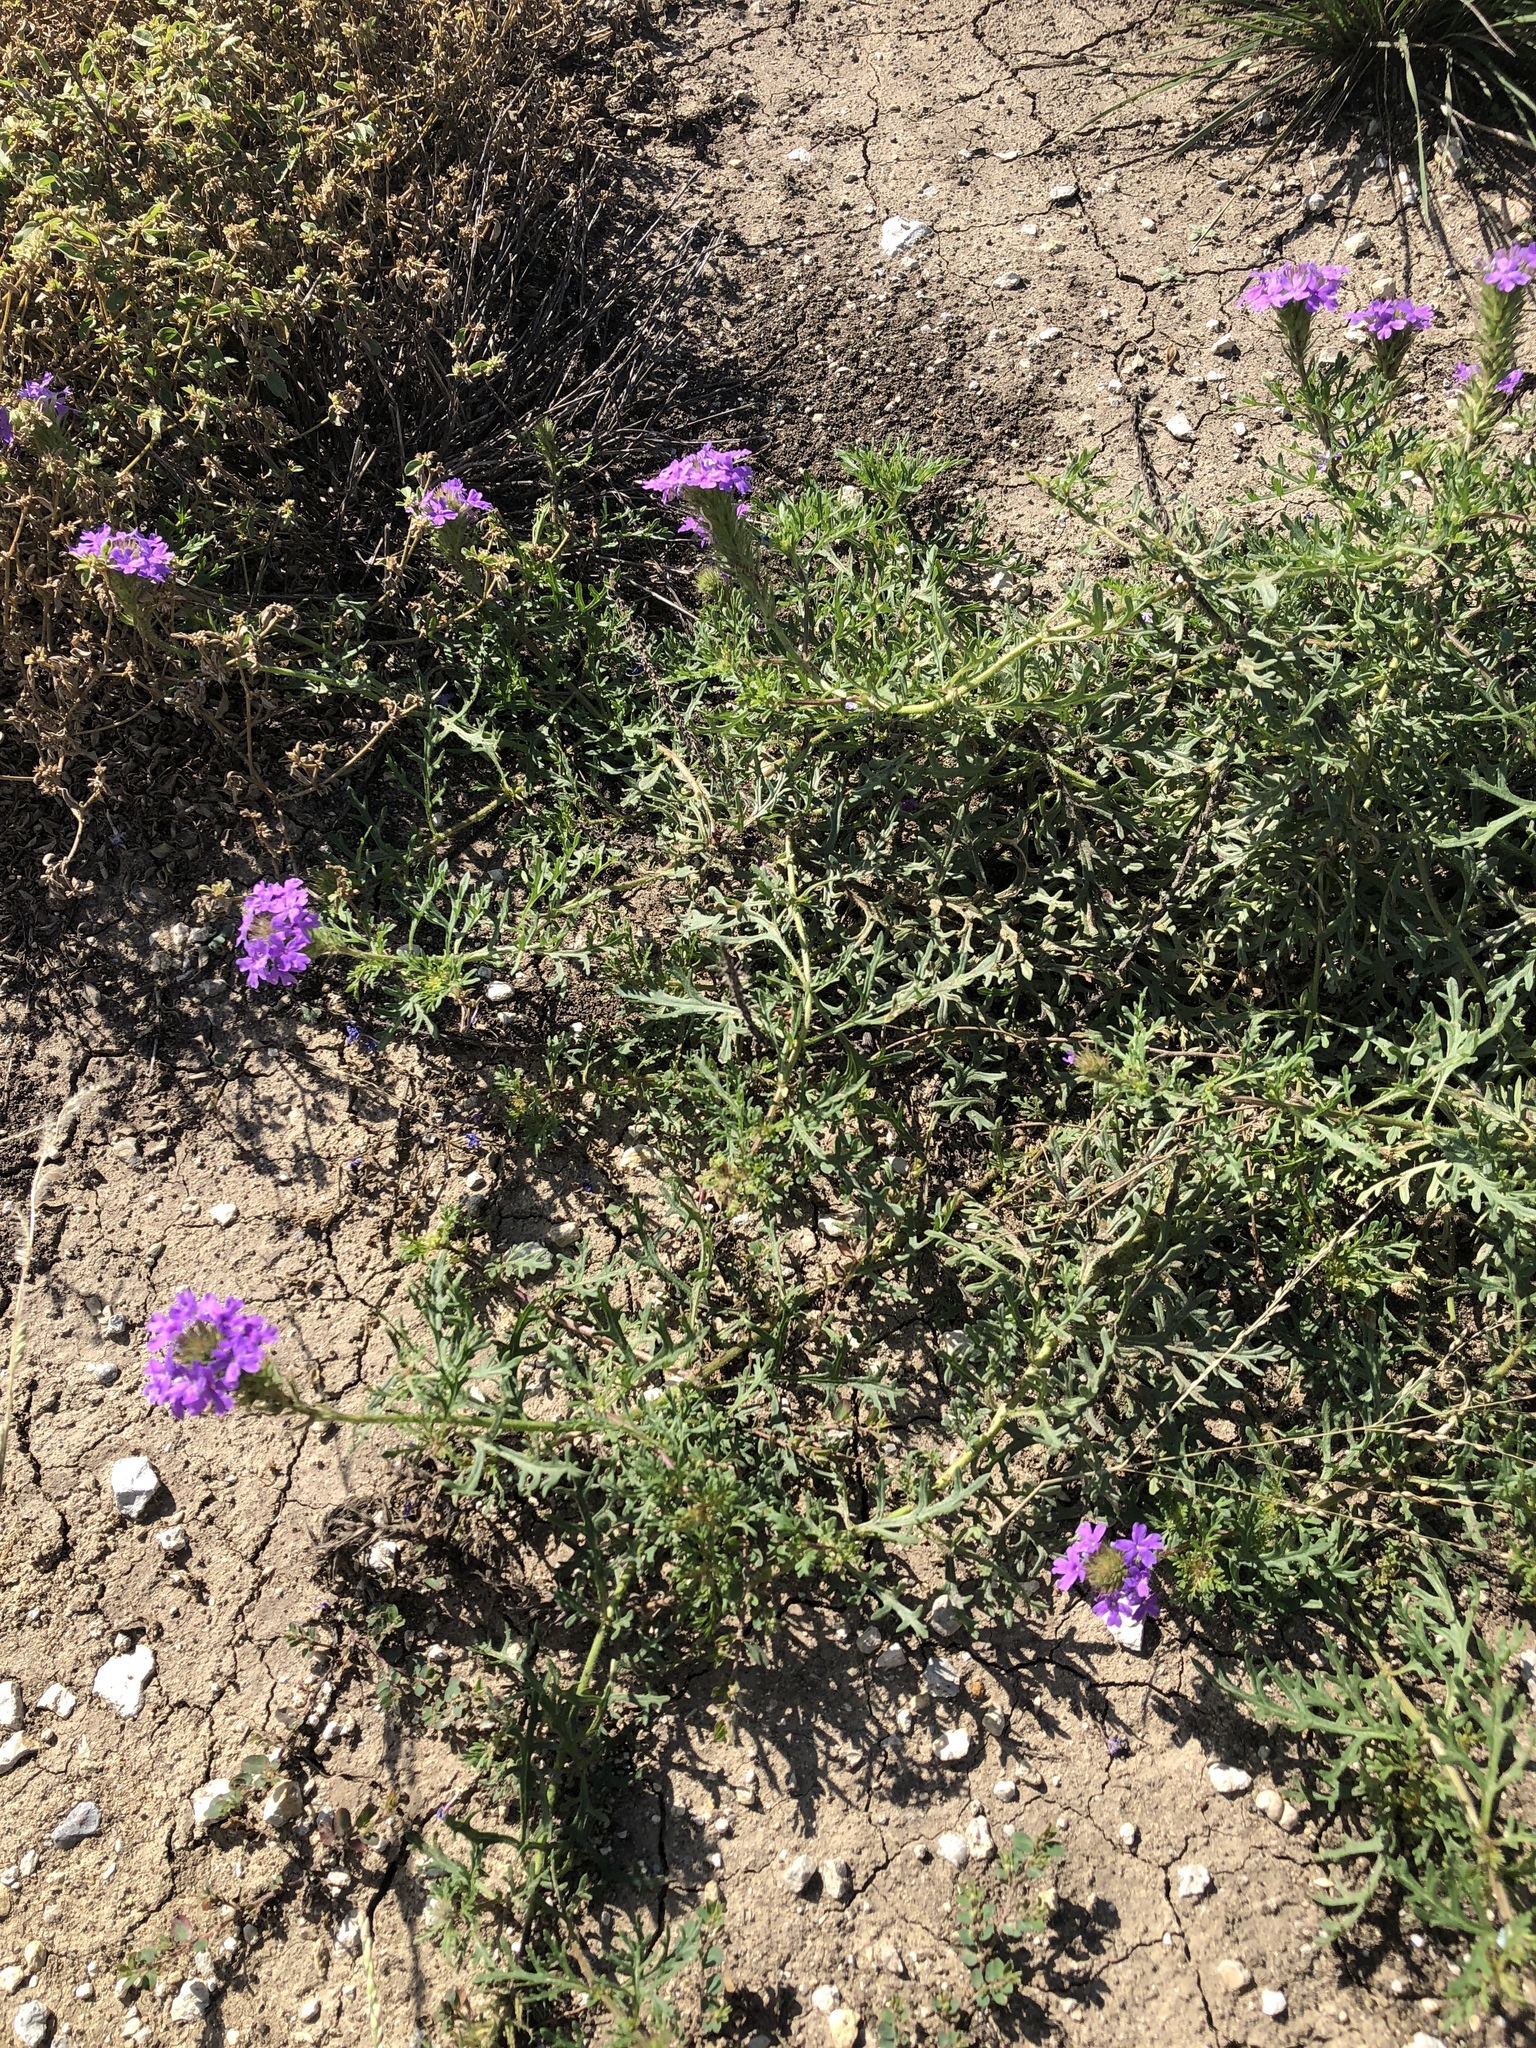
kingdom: Plantae
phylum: Tracheophyta
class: Magnoliopsida
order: Lamiales
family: Verbenaceae
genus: Verbena
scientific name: Verbena bipinnatifida
